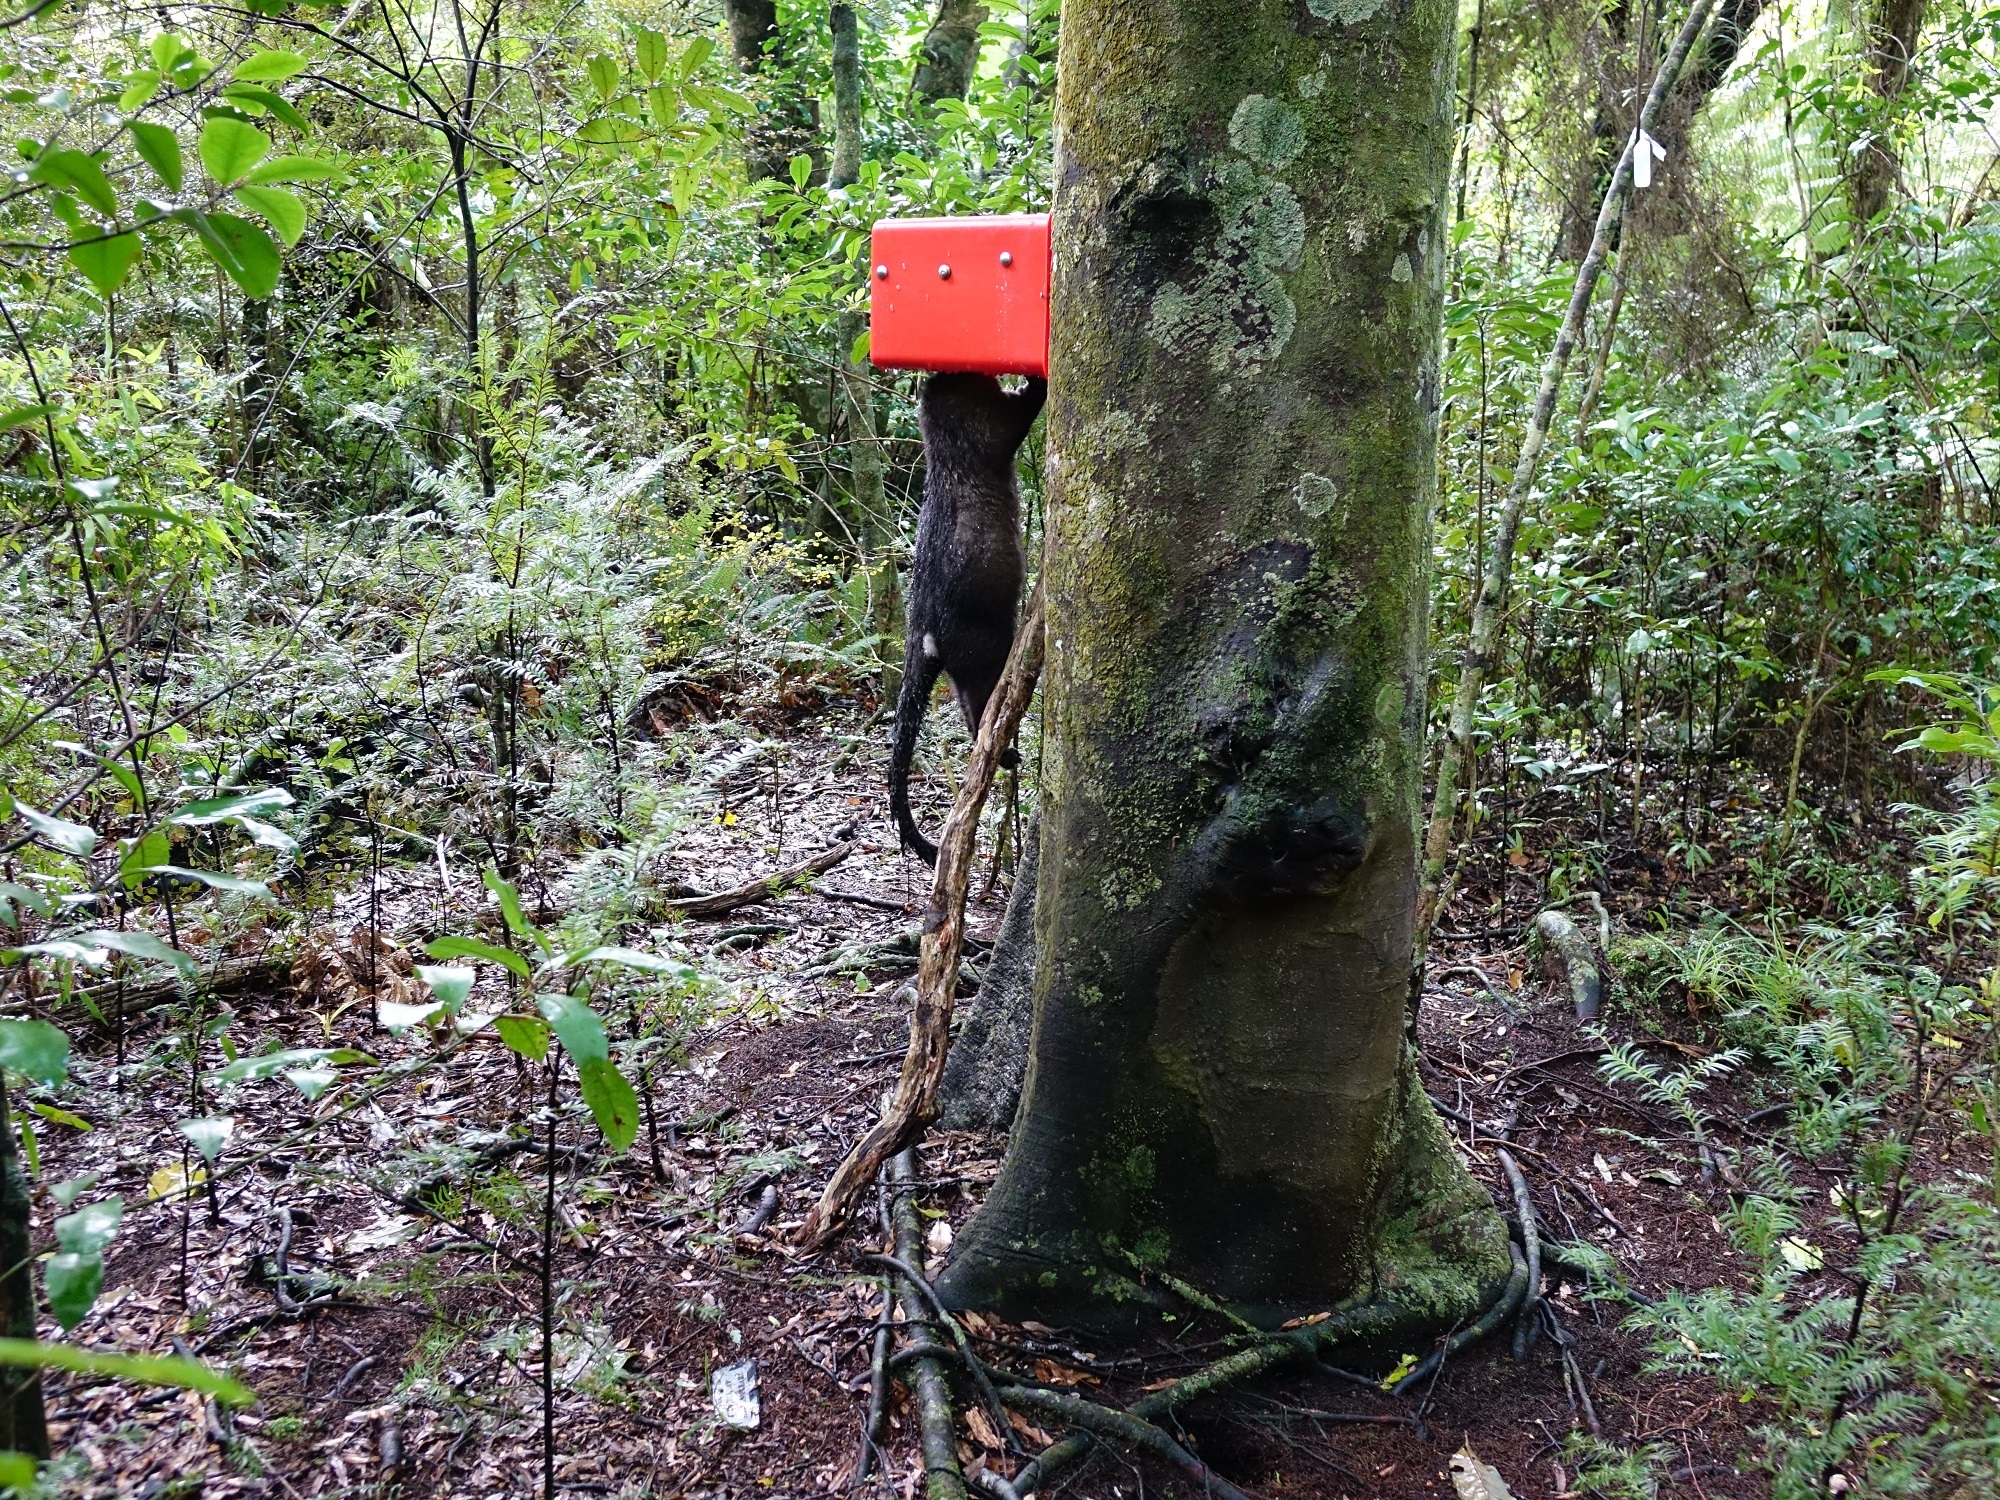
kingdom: Animalia
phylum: Chordata
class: Mammalia
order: Diprotodontia
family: Phalangeridae
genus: Trichosurus
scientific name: Trichosurus vulpecula
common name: Common brushtail
